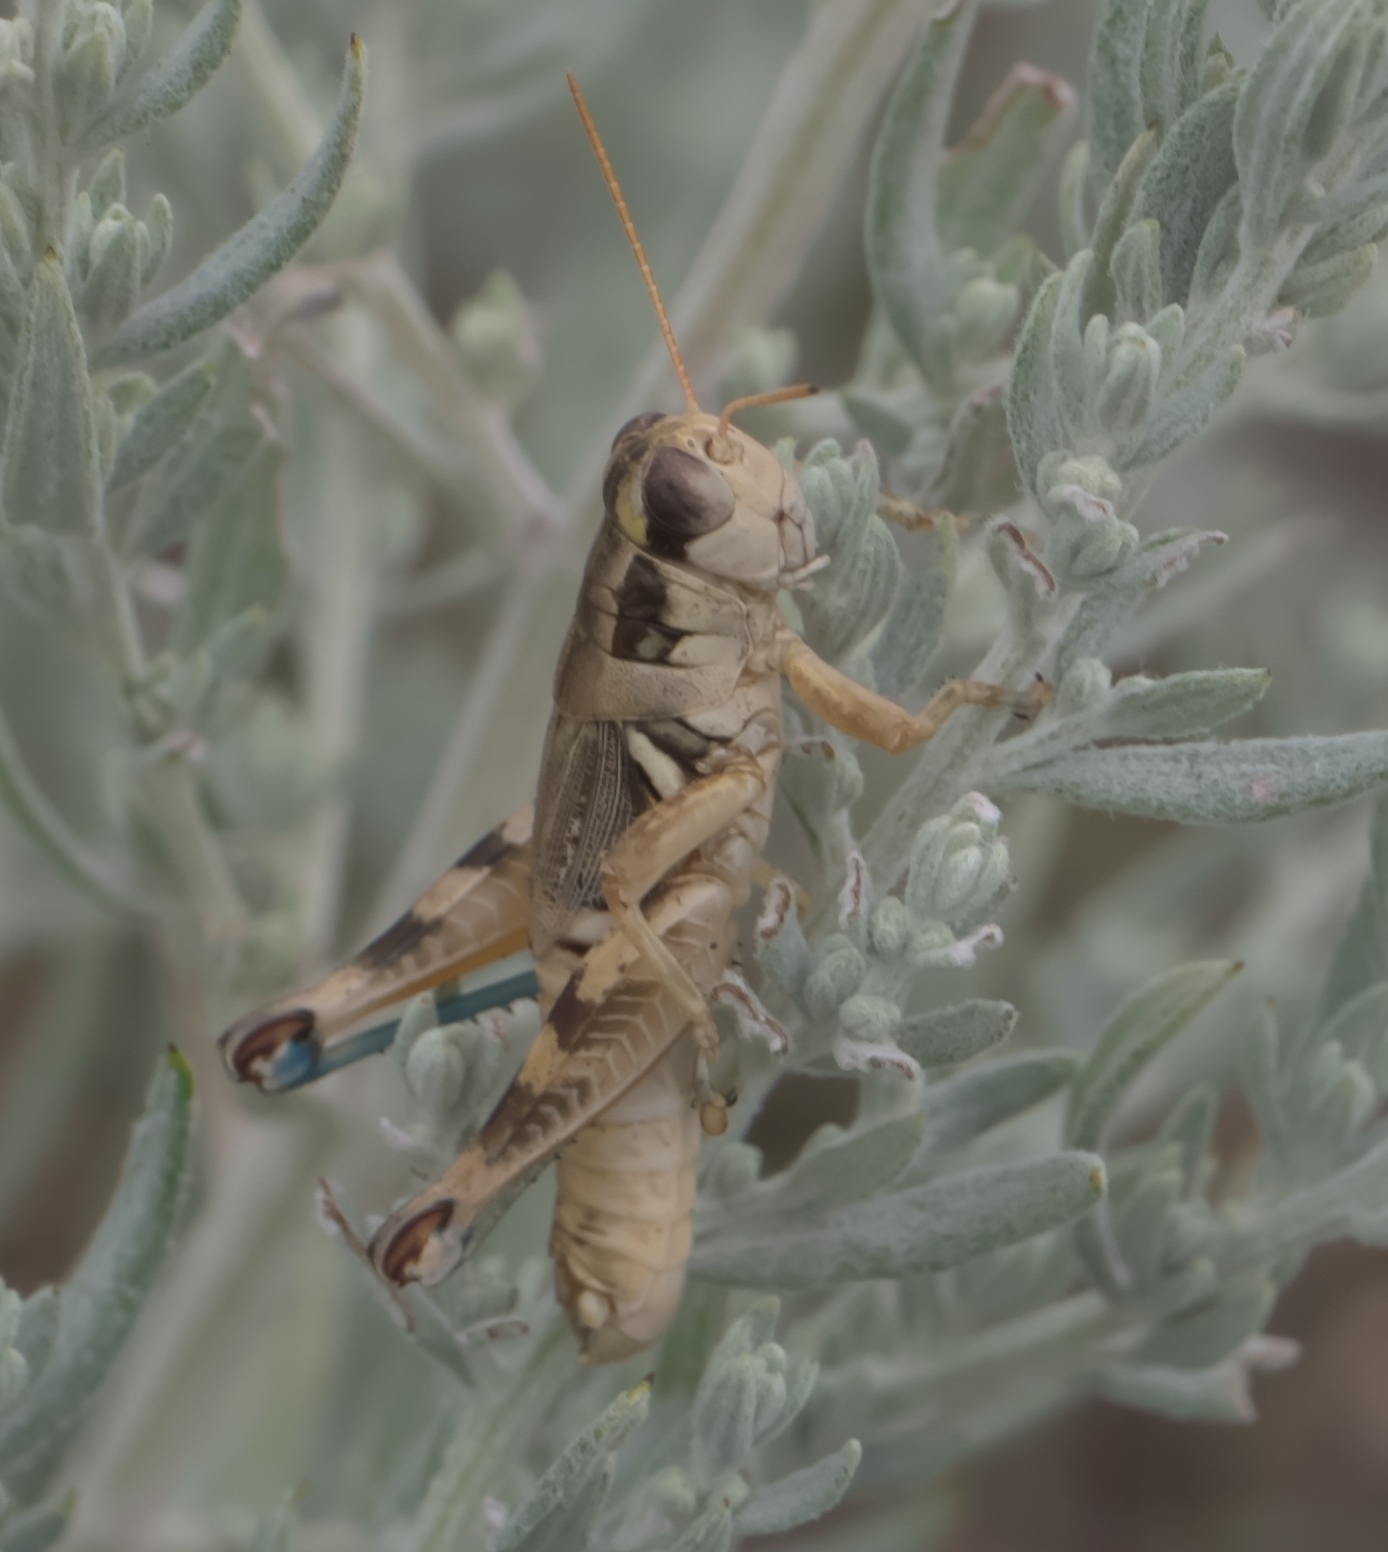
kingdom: Animalia
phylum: Arthropoda
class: Insecta
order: Orthoptera
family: Acrididae
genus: Melanoplus
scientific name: Melanoplus lakinus
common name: Lakin grasshopper
